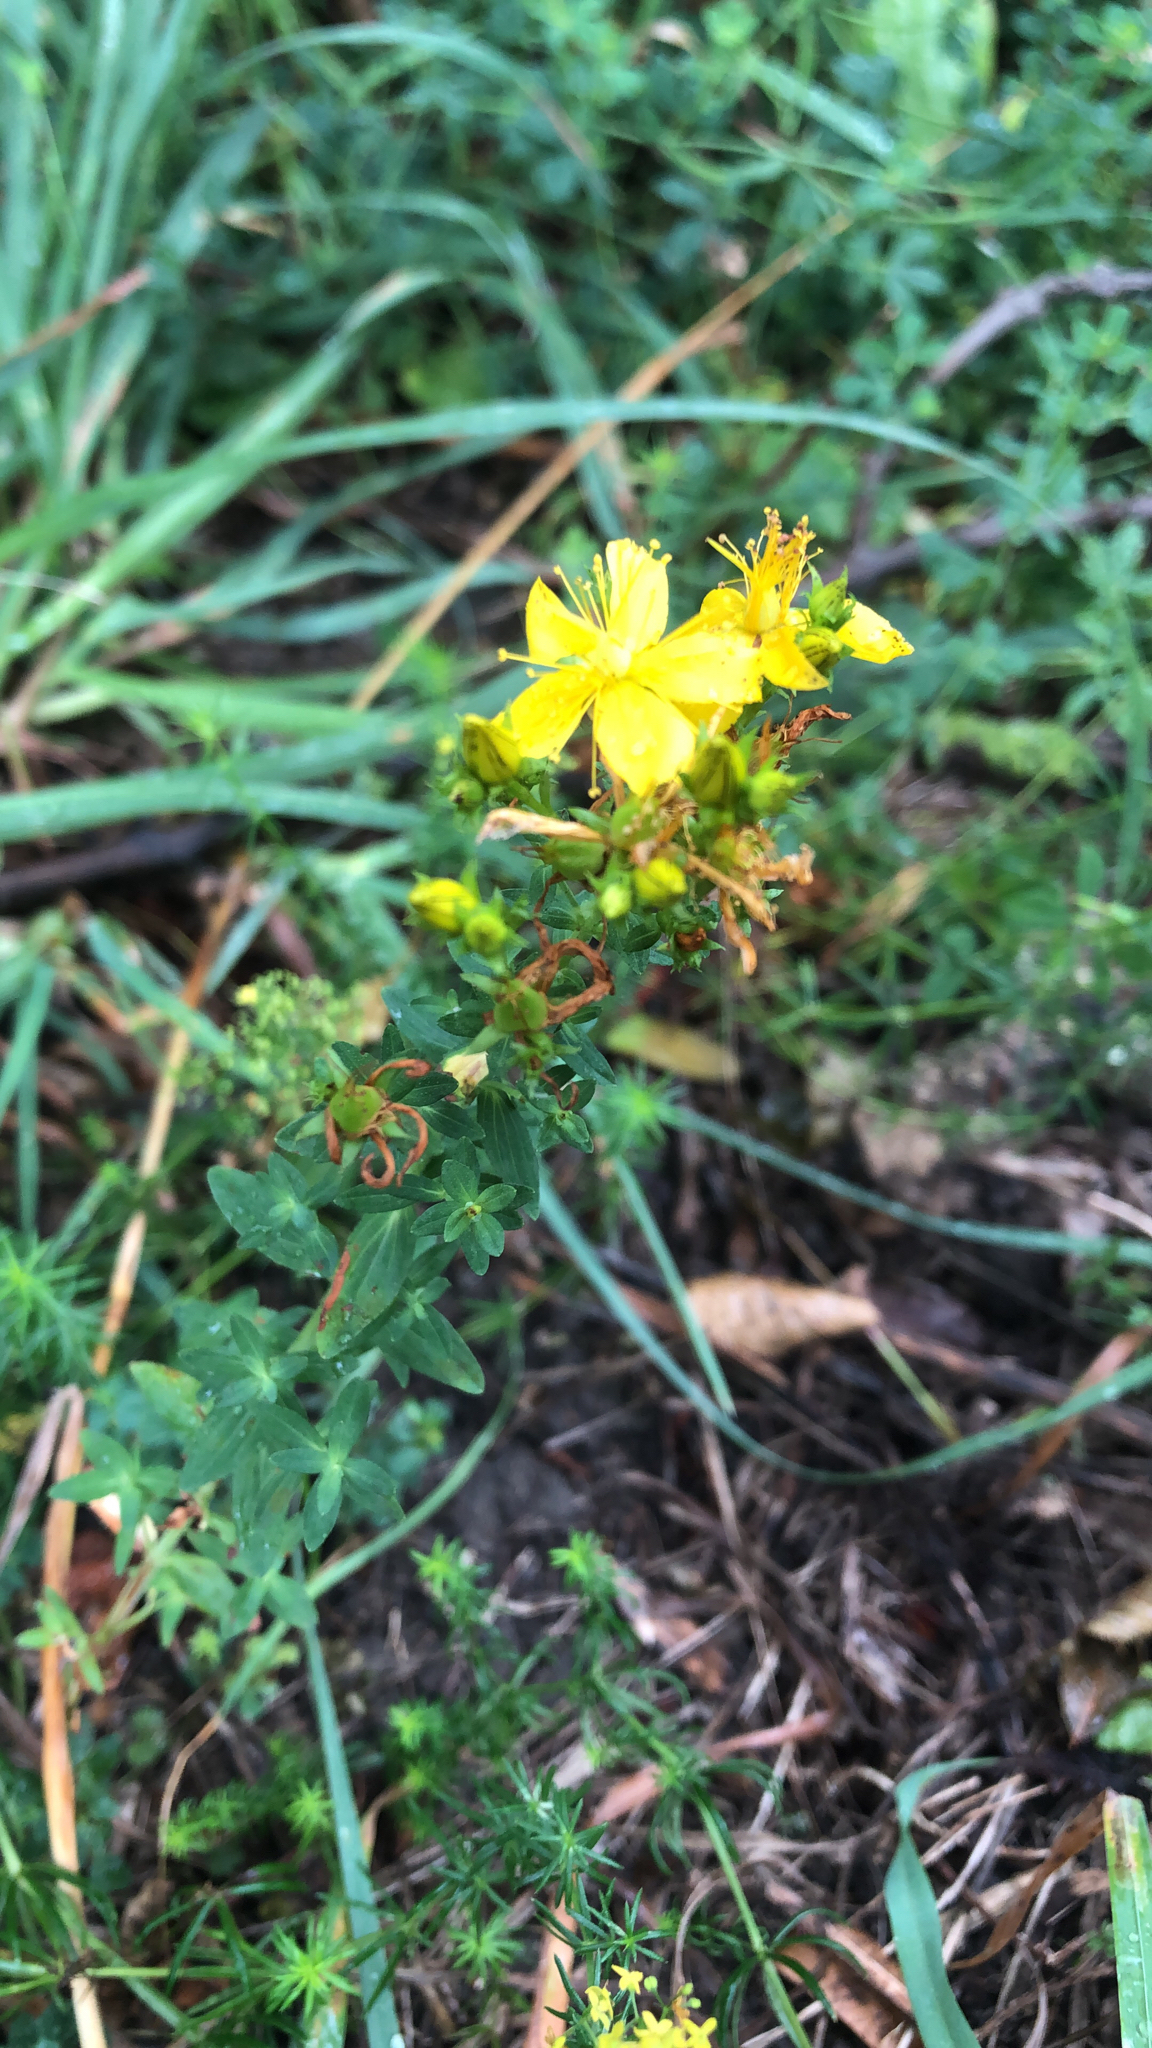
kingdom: Plantae
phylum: Tracheophyta
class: Magnoliopsida
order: Malpighiales
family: Hypericaceae
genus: Hypericum
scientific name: Hypericum perforatum
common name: Common st. johnswort
